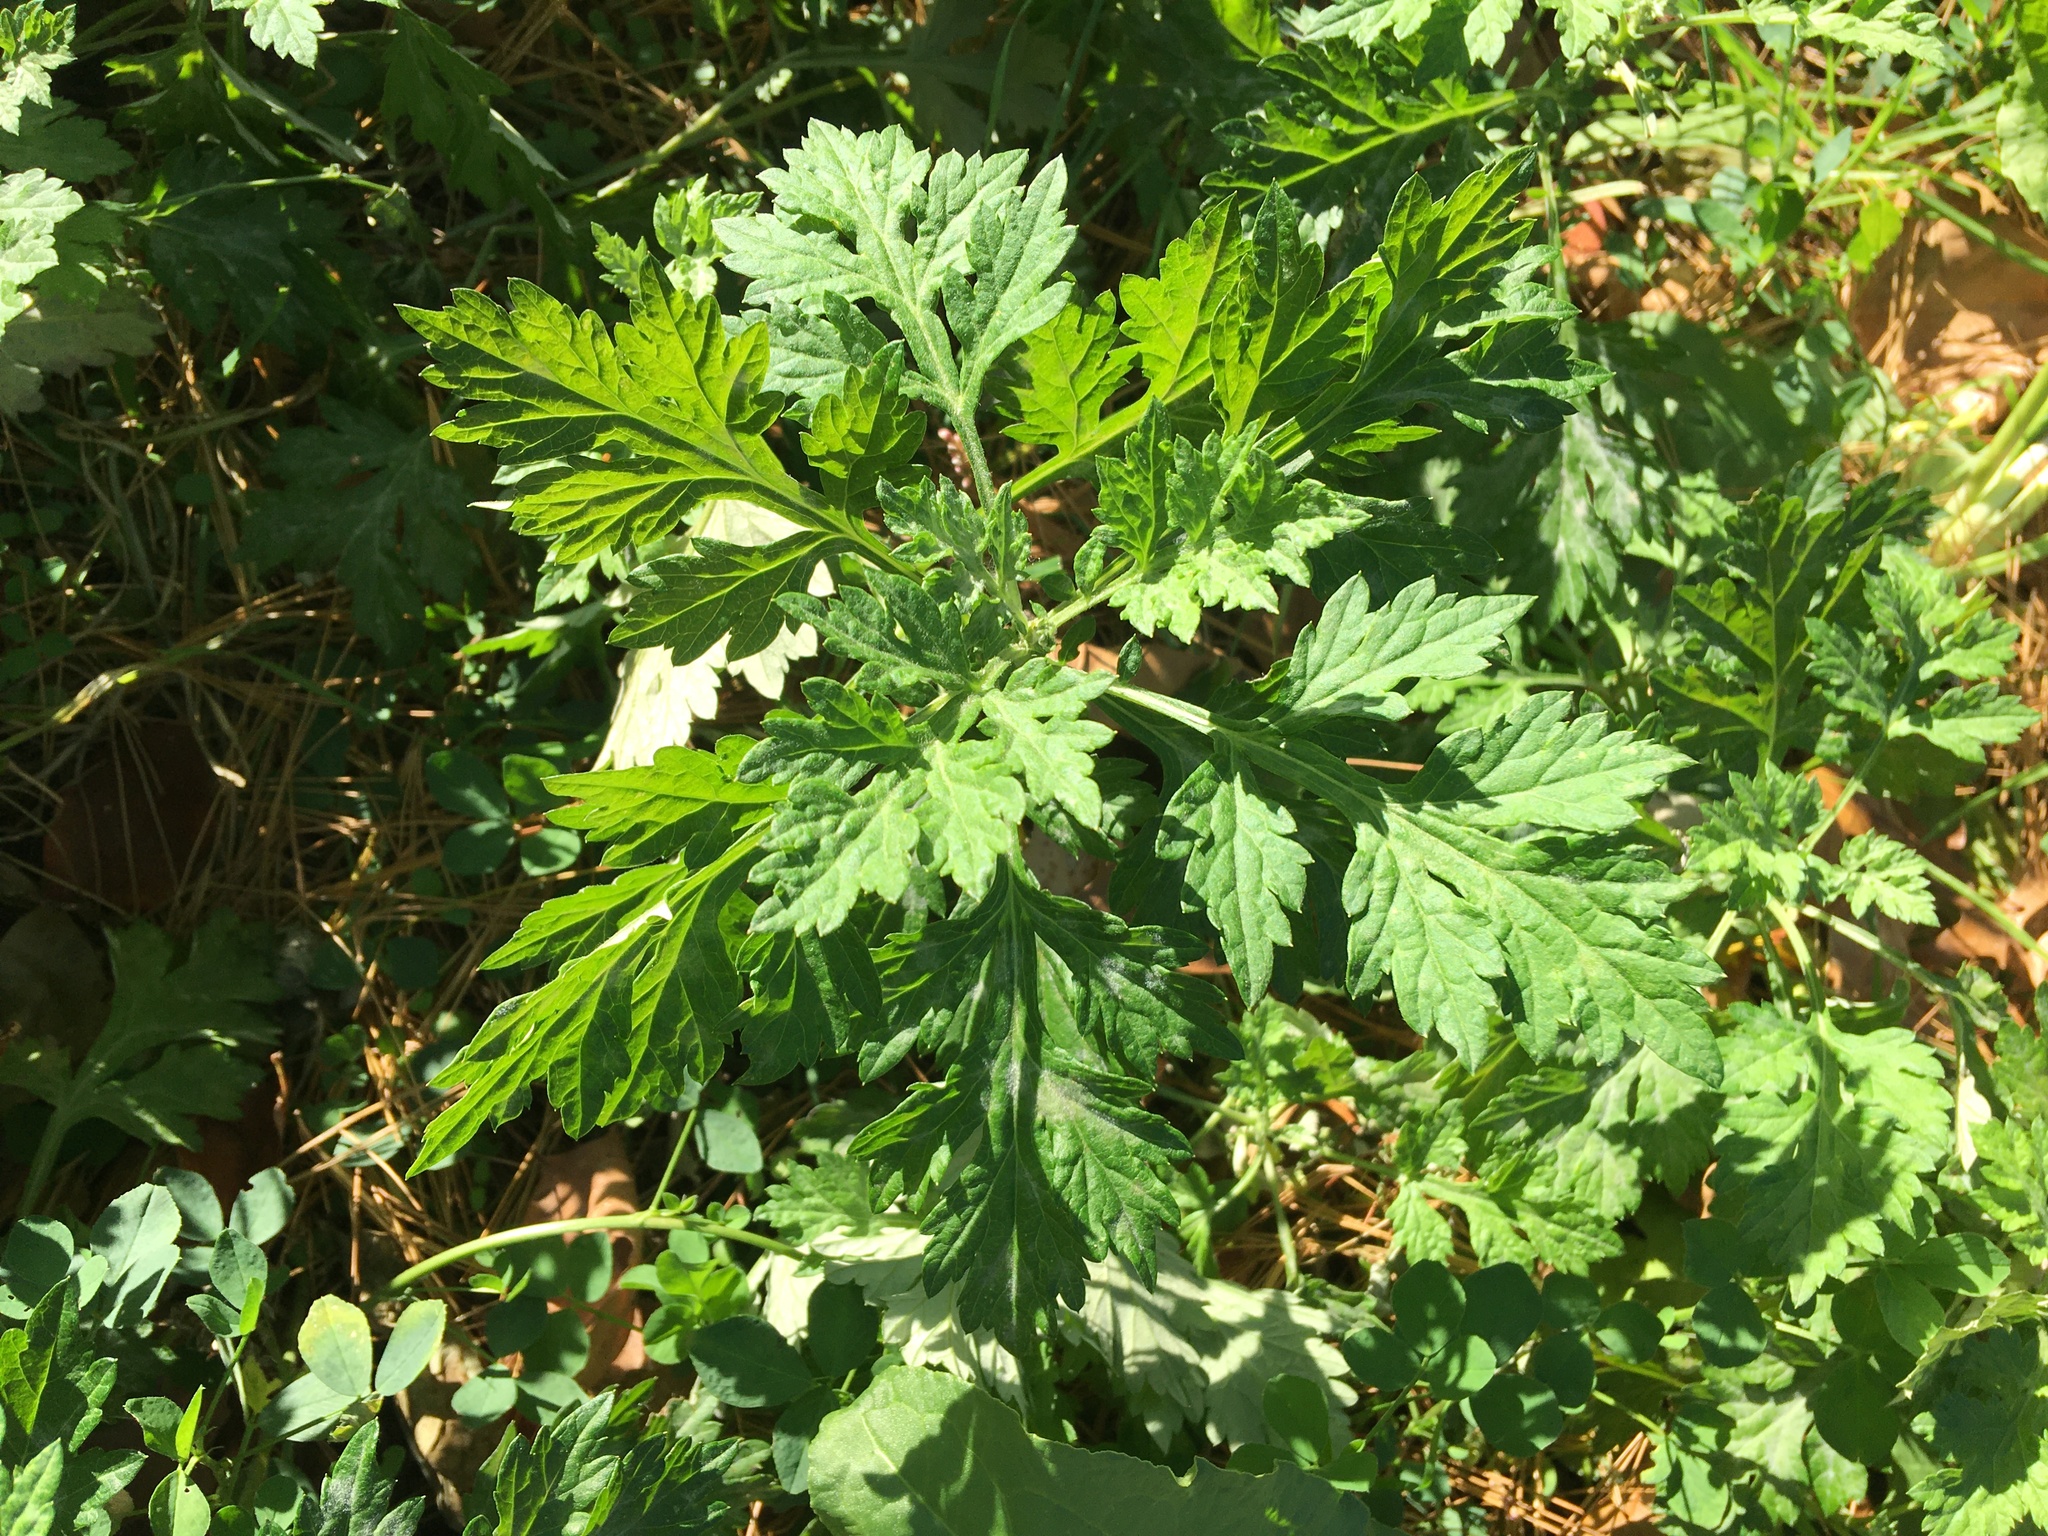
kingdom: Plantae
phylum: Tracheophyta
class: Magnoliopsida
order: Asterales
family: Asteraceae
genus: Artemisia
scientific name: Artemisia vulgaris
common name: Mugwort
